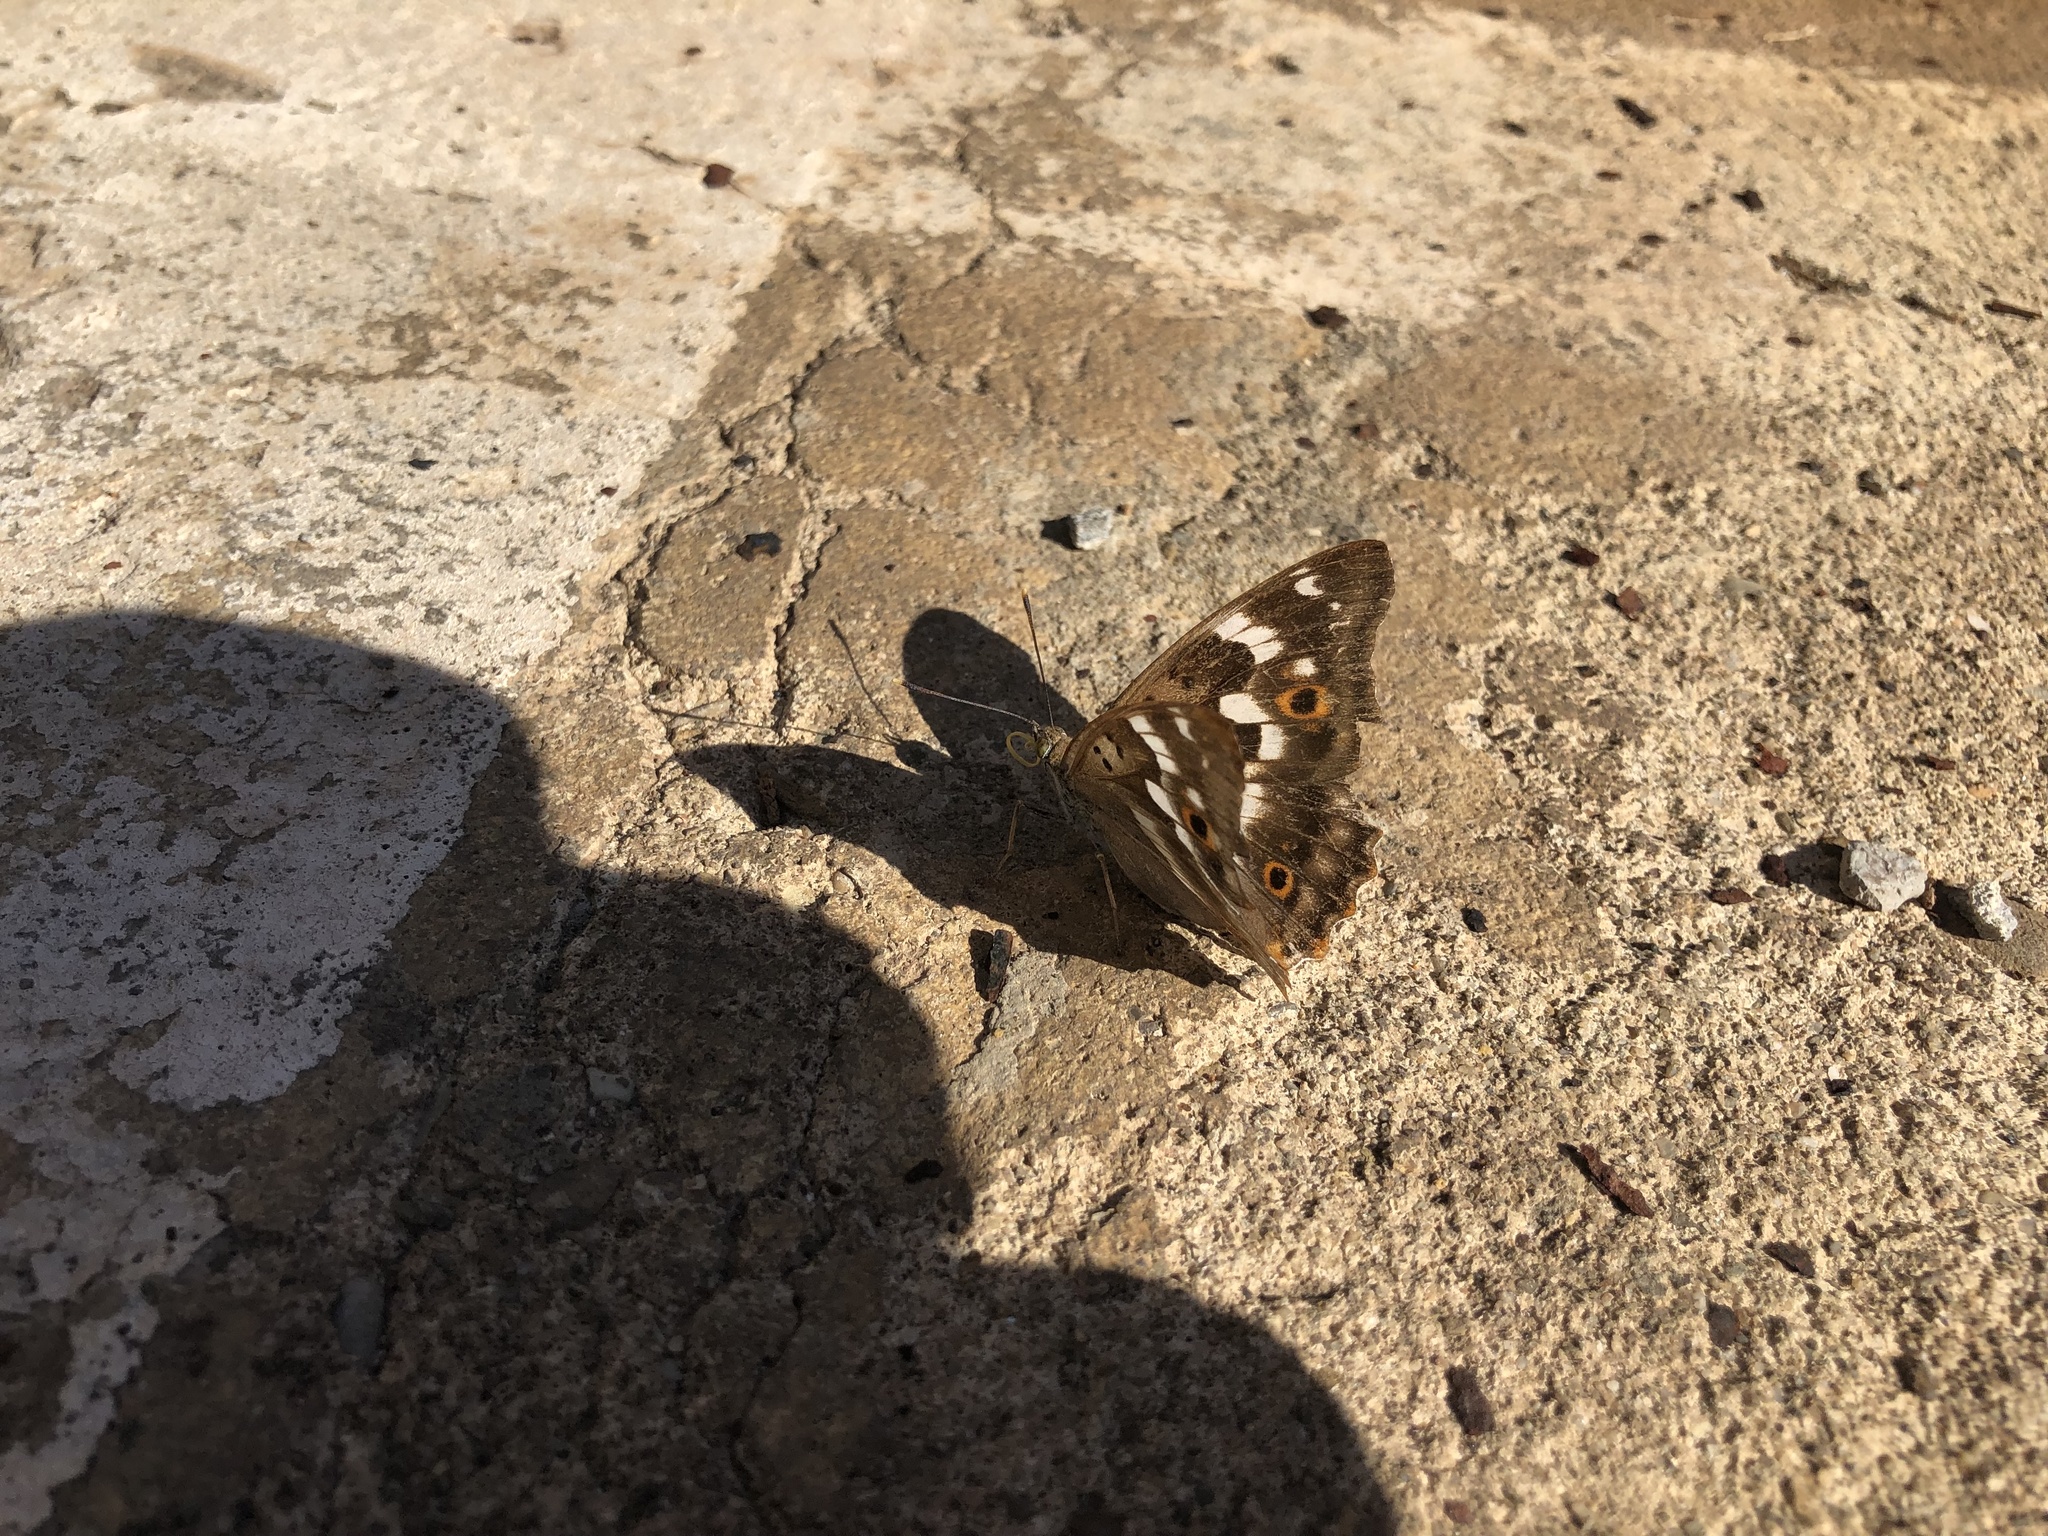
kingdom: Animalia
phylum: Arthropoda
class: Insecta
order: Lepidoptera
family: Nymphalidae
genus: Apatura
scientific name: Apatura ilia
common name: Lesser purple emperor
